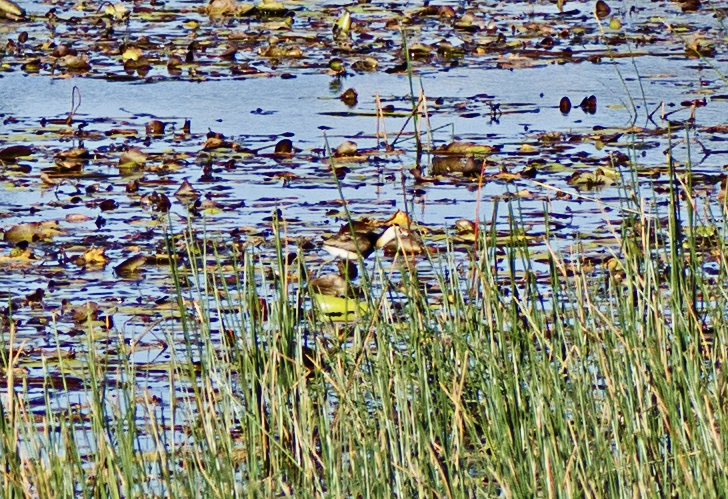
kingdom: Animalia
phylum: Chordata
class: Aves
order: Charadriiformes
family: Jacanidae
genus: Irediparra
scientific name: Irediparra gallinacea
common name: Comb-crested jacana
